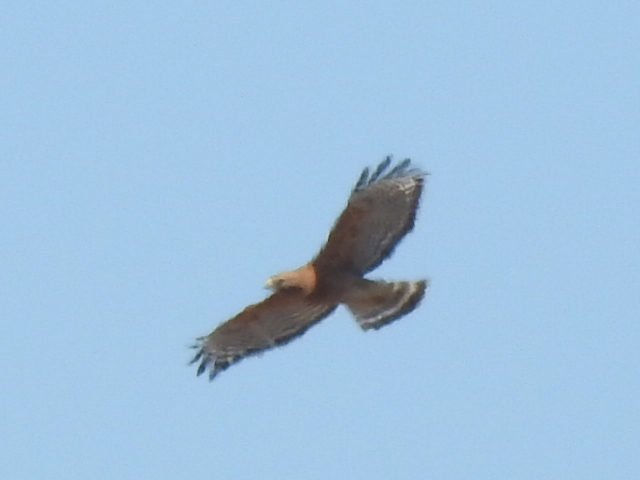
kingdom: Animalia
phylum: Chordata
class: Aves
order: Accipitriformes
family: Accipitridae
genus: Buteo
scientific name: Buteo lineatus
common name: Red-shouldered hawk
